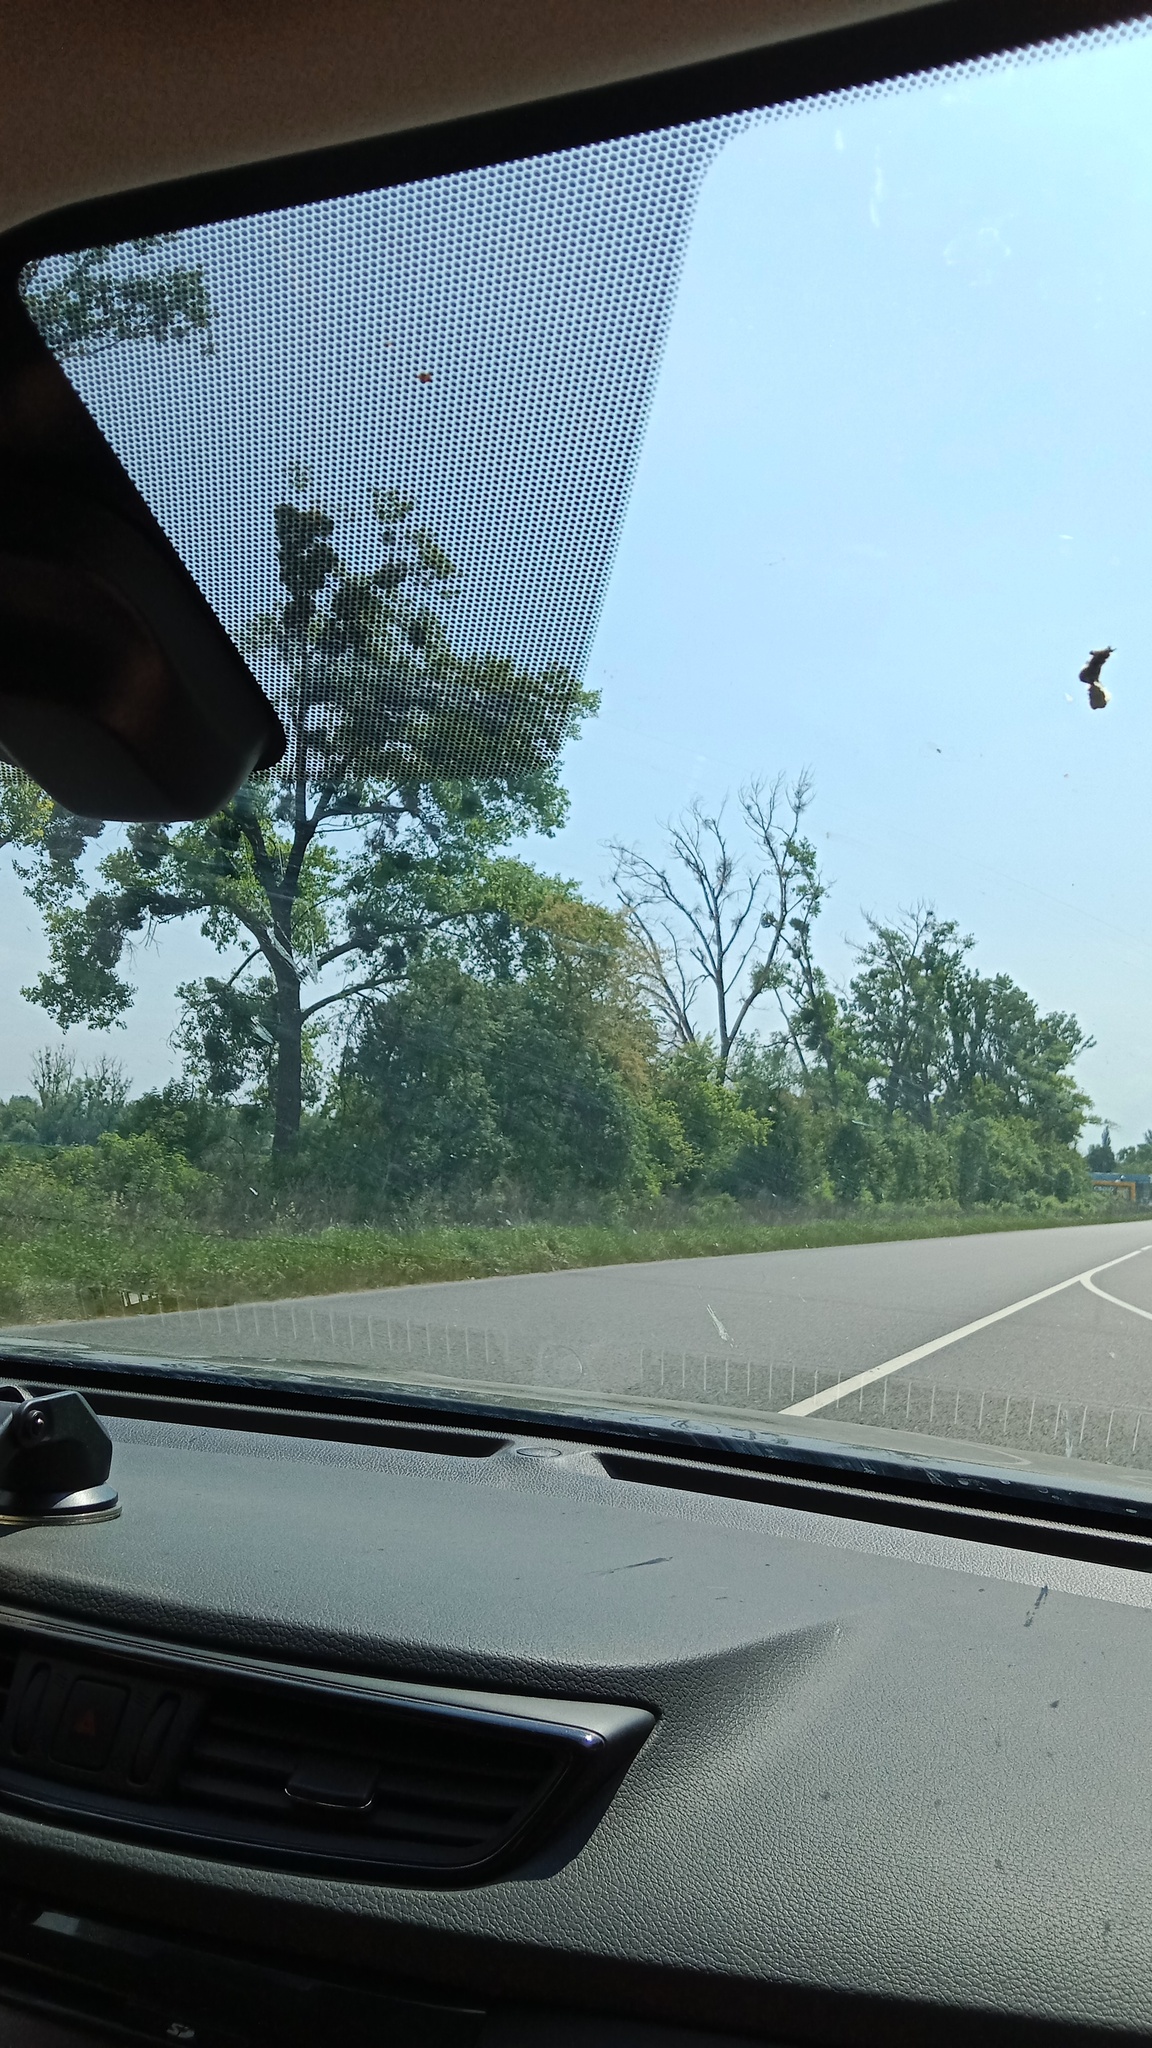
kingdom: Plantae
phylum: Tracheophyta
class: Magnoliopsida
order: Santalales
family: Viscaceae
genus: Viscum
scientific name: Viscum album
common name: Mistletoe
